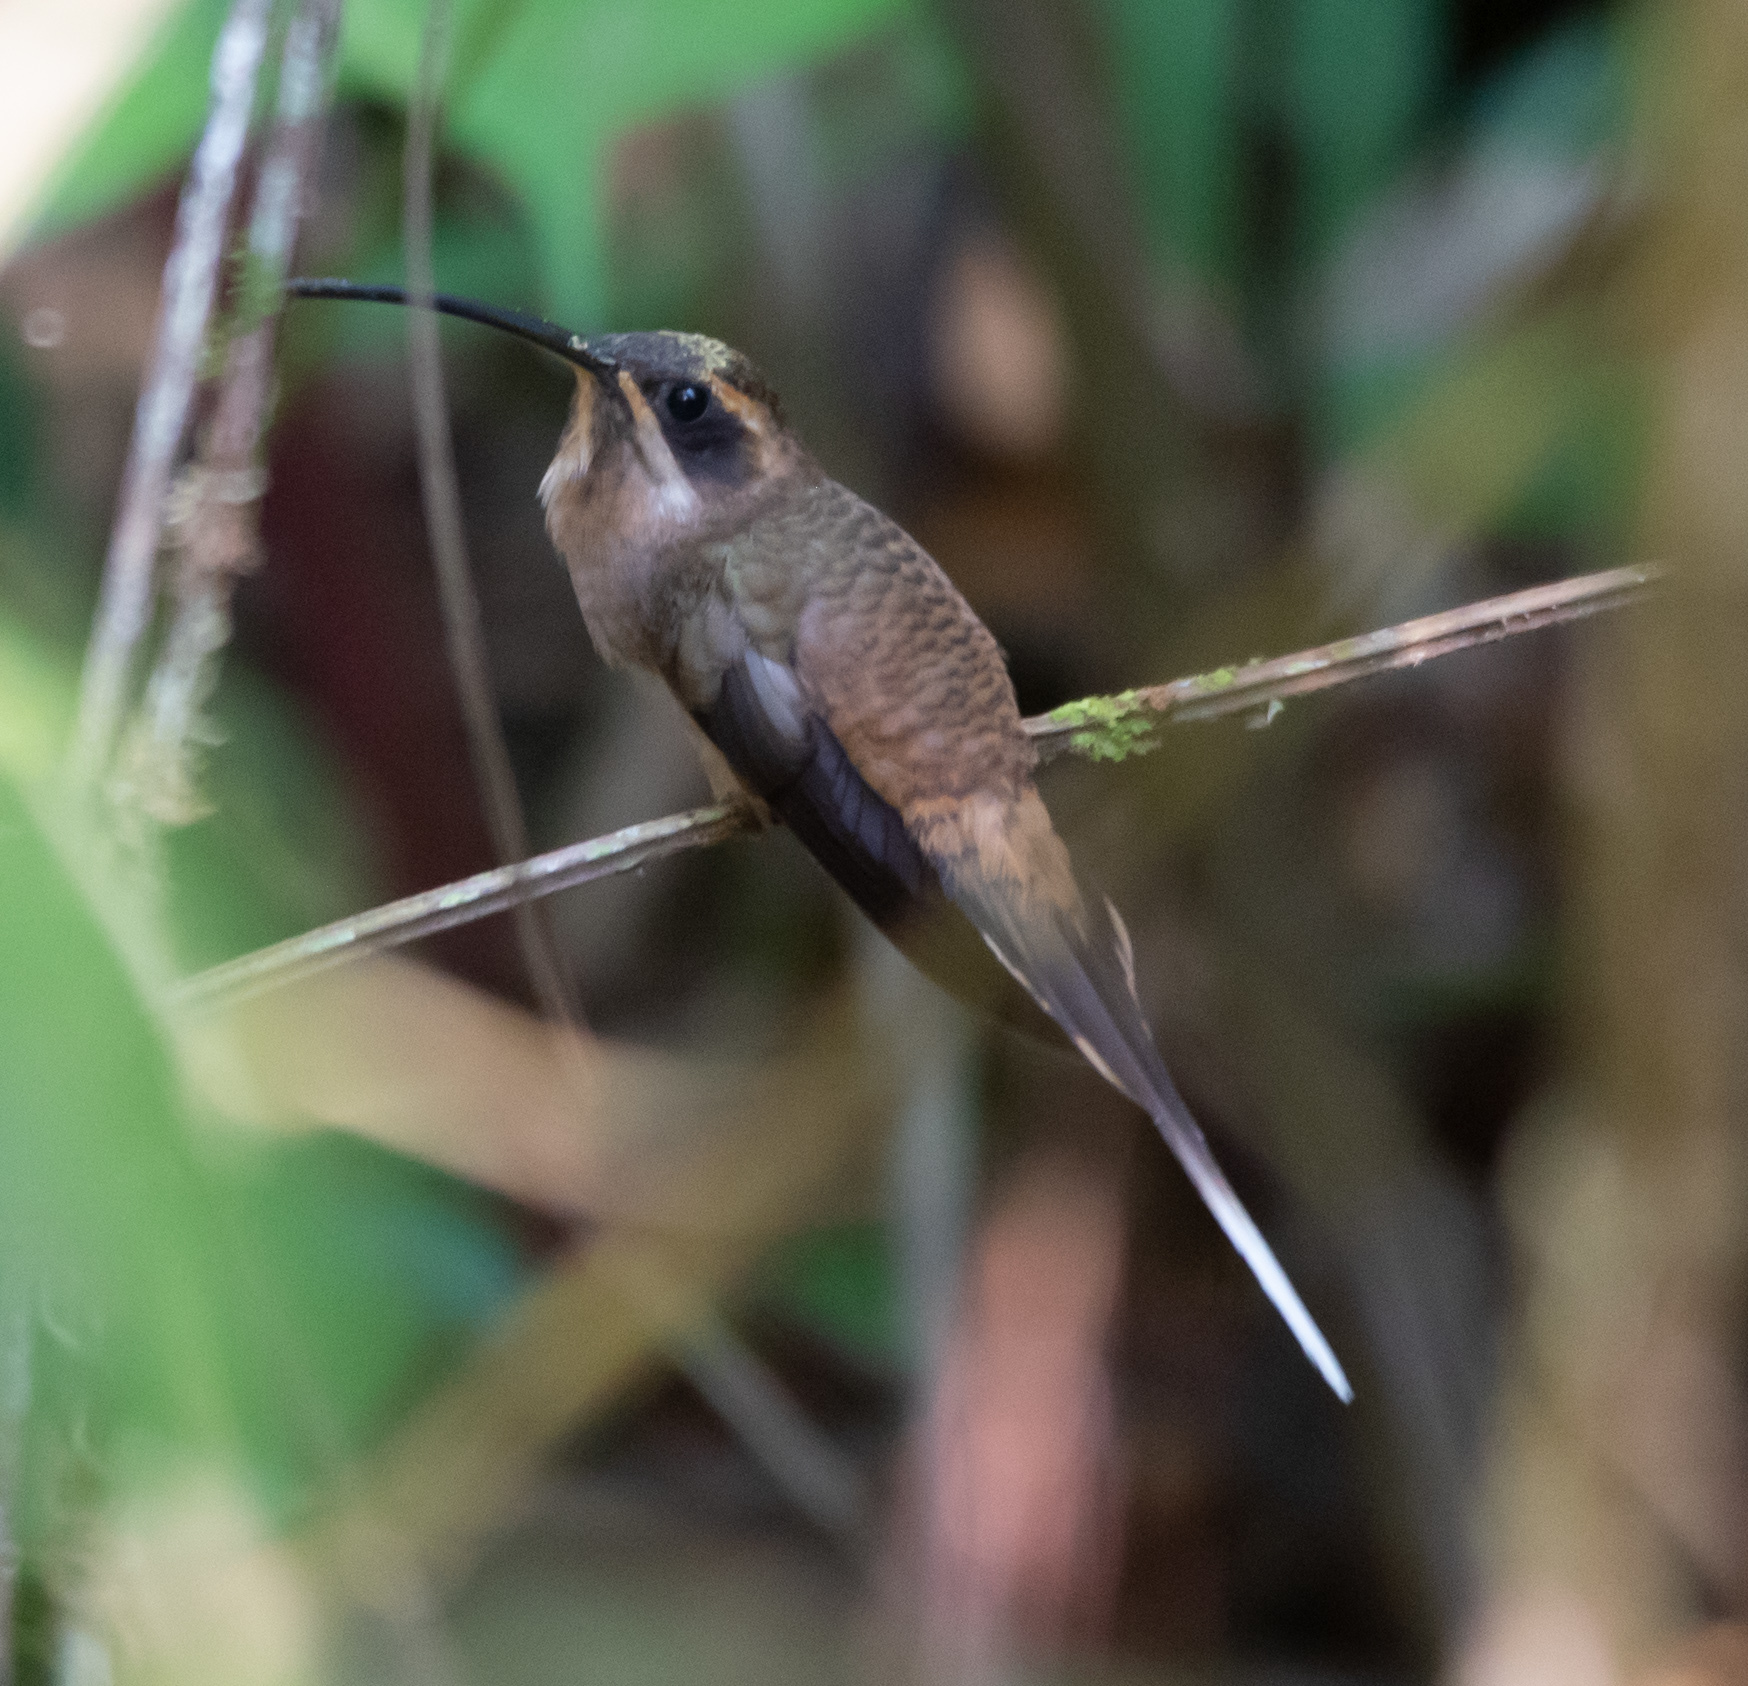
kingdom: Animalia
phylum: Chordata
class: Aves
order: Apodiformes
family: Trochilidae
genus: Phaethornis
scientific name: Phaethornis longirostris
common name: Long-billed hermit
